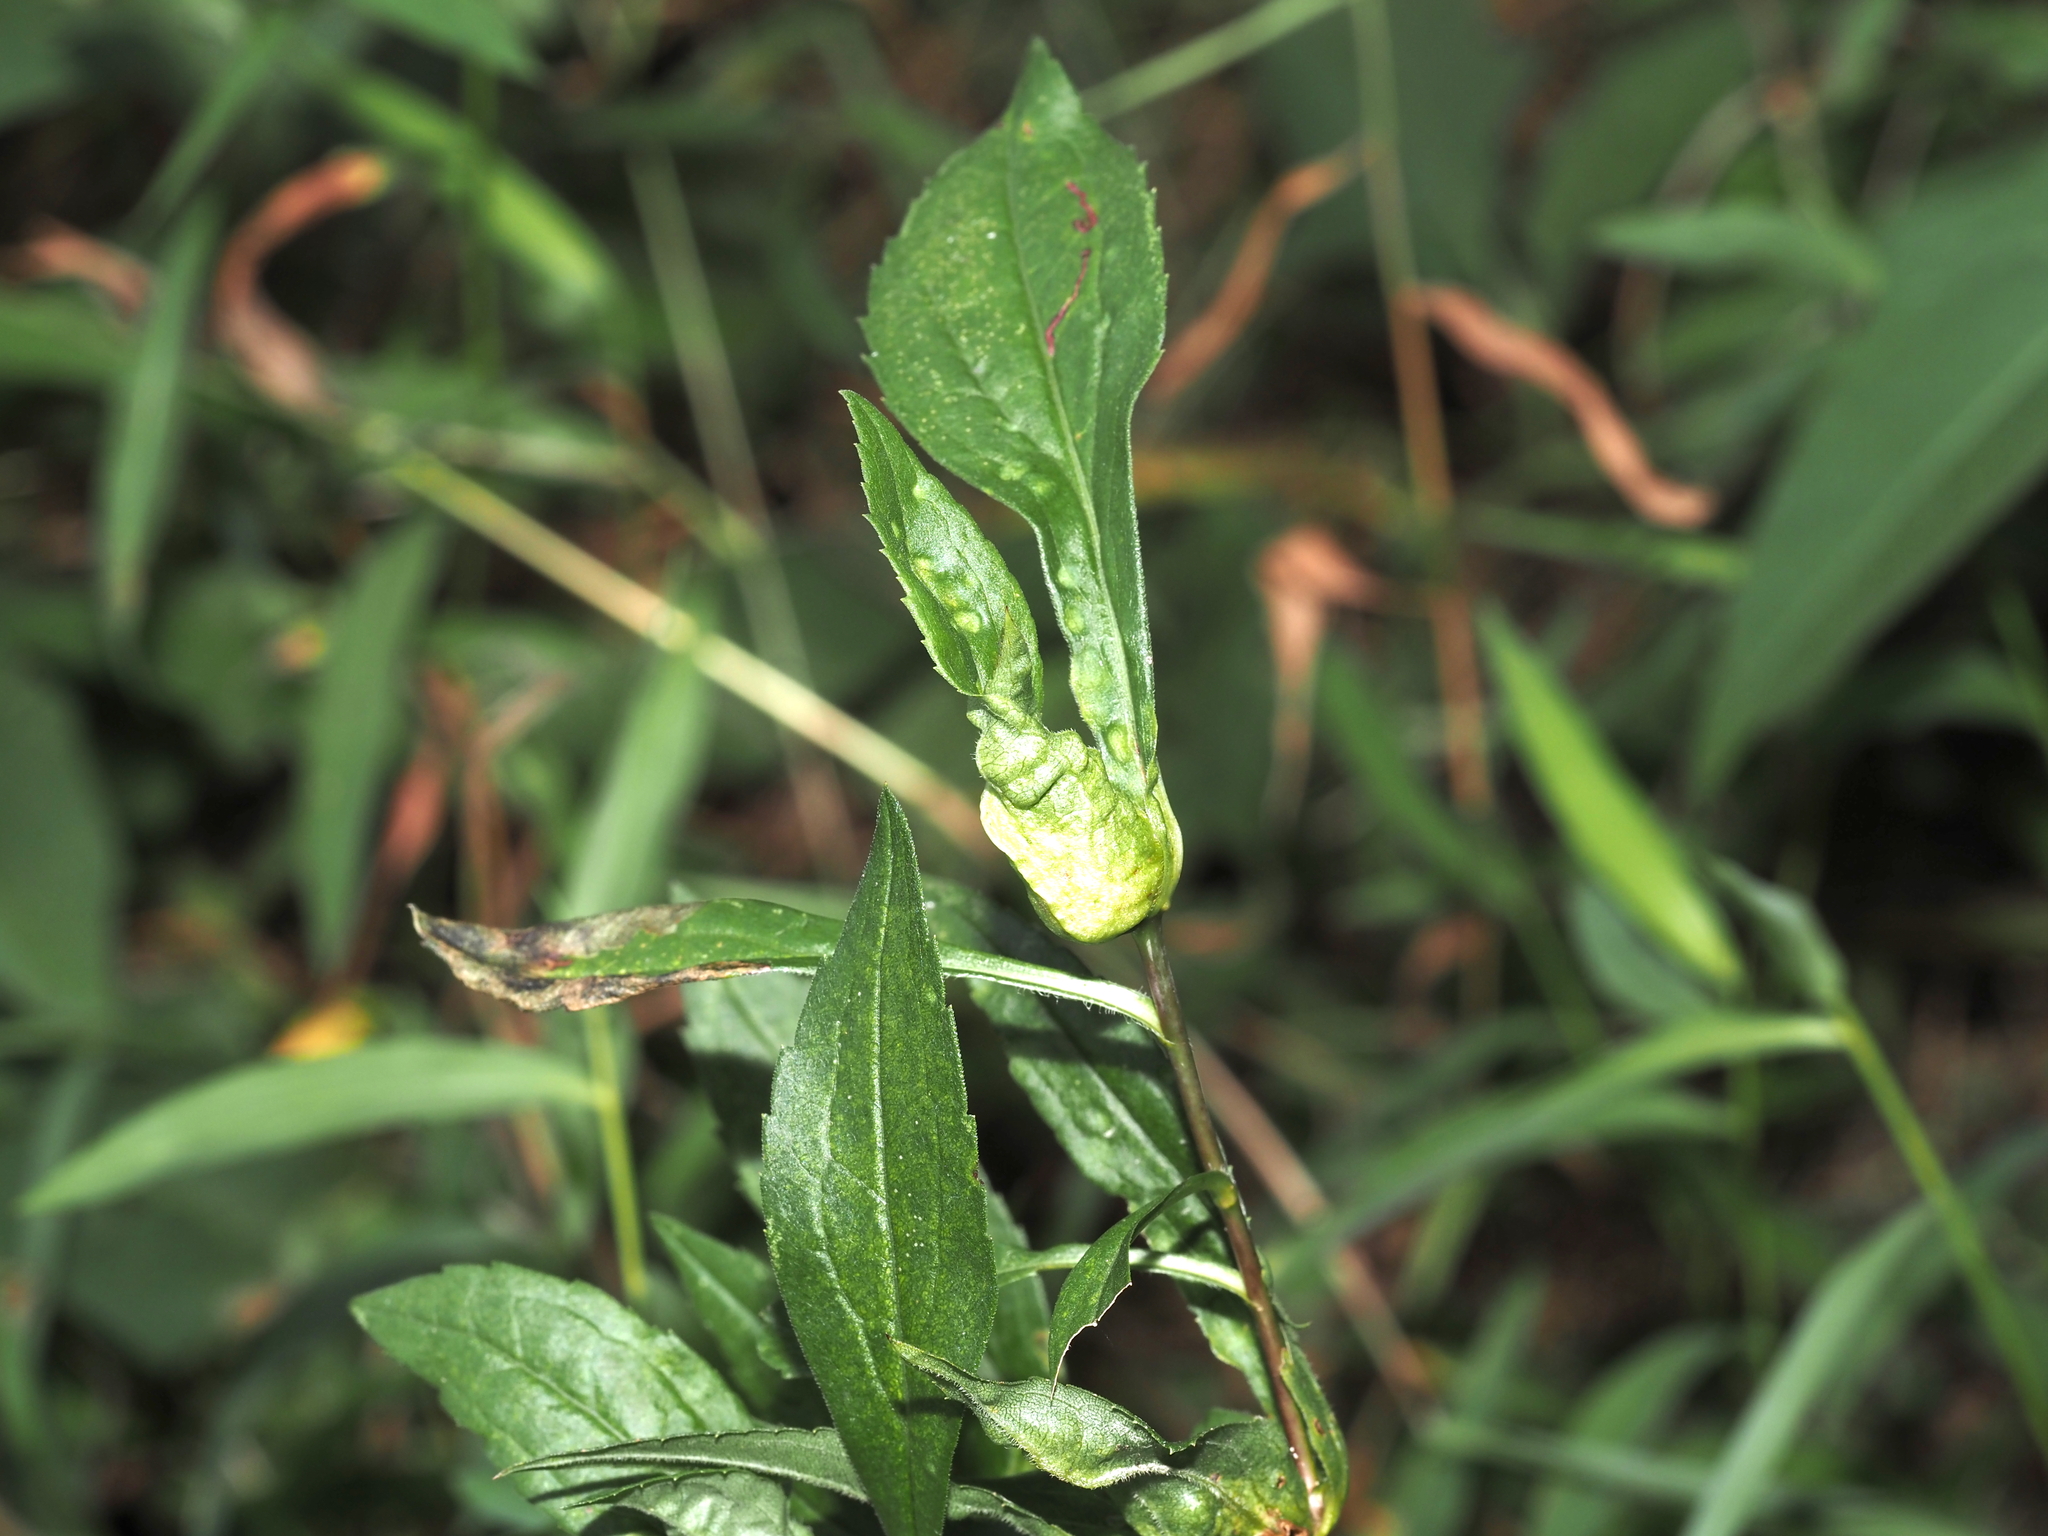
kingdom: Animalia
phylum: Arthropoda
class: Insecta
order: Diptera
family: Cecidomyiidae
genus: Dasineura
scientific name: Dasineura folliculi
